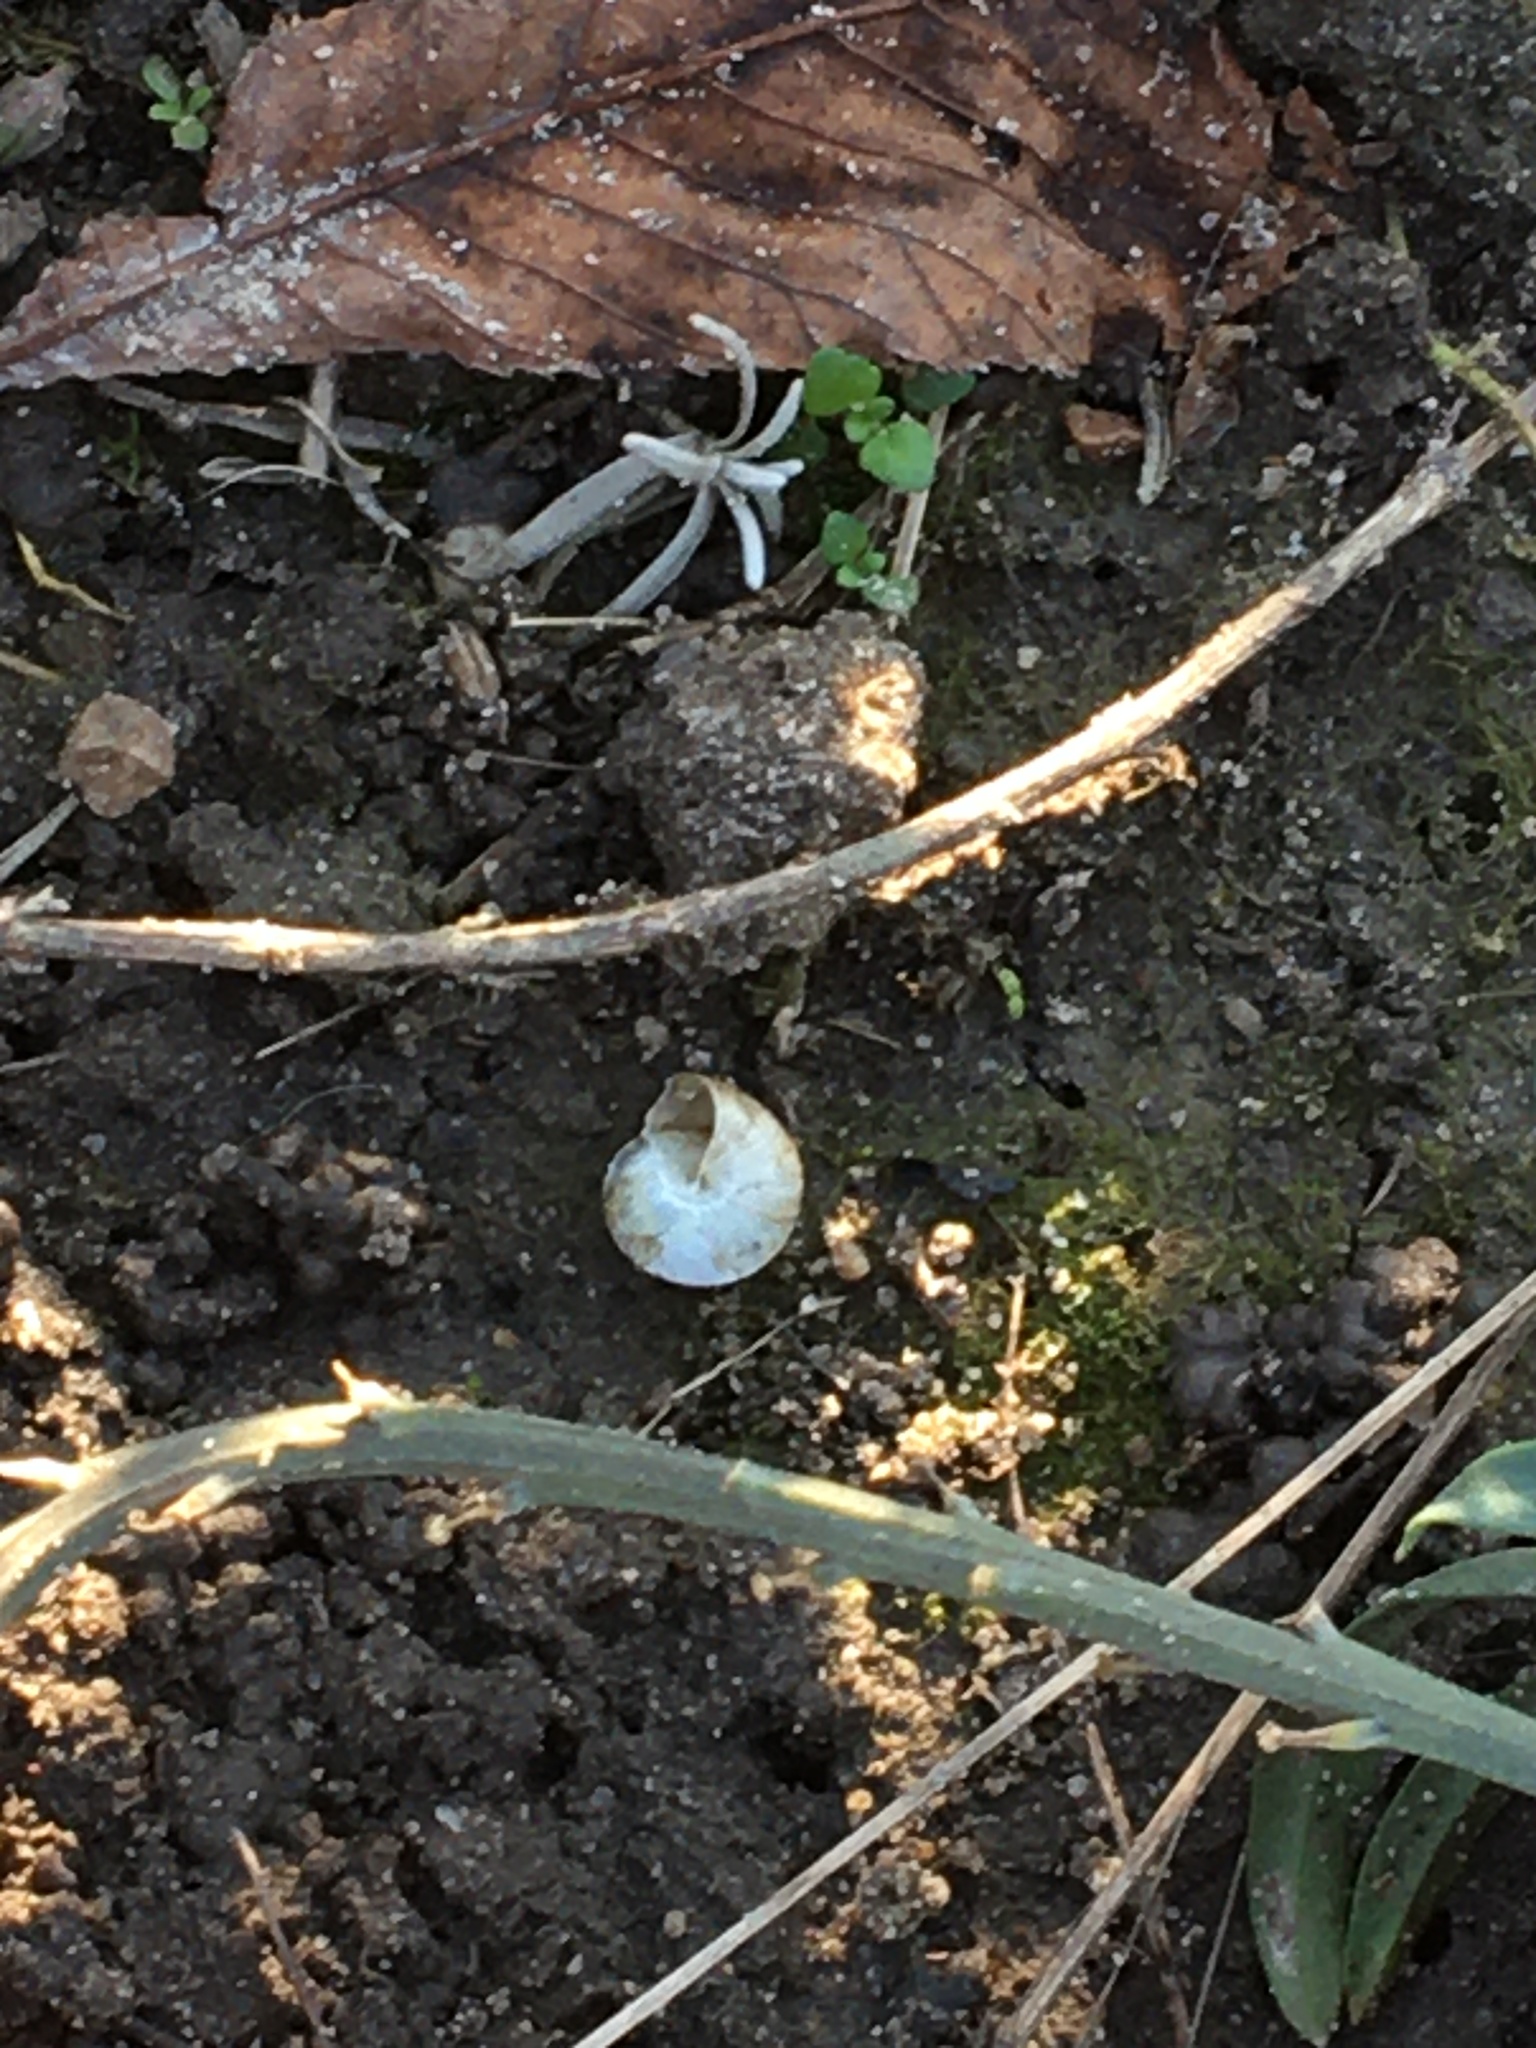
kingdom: Animalia
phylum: Mollusca
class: Gastropoda
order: Stylommatophora
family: Hygromiidae
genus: Hygromia
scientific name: Hygromia cinctella
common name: Girdled snail
